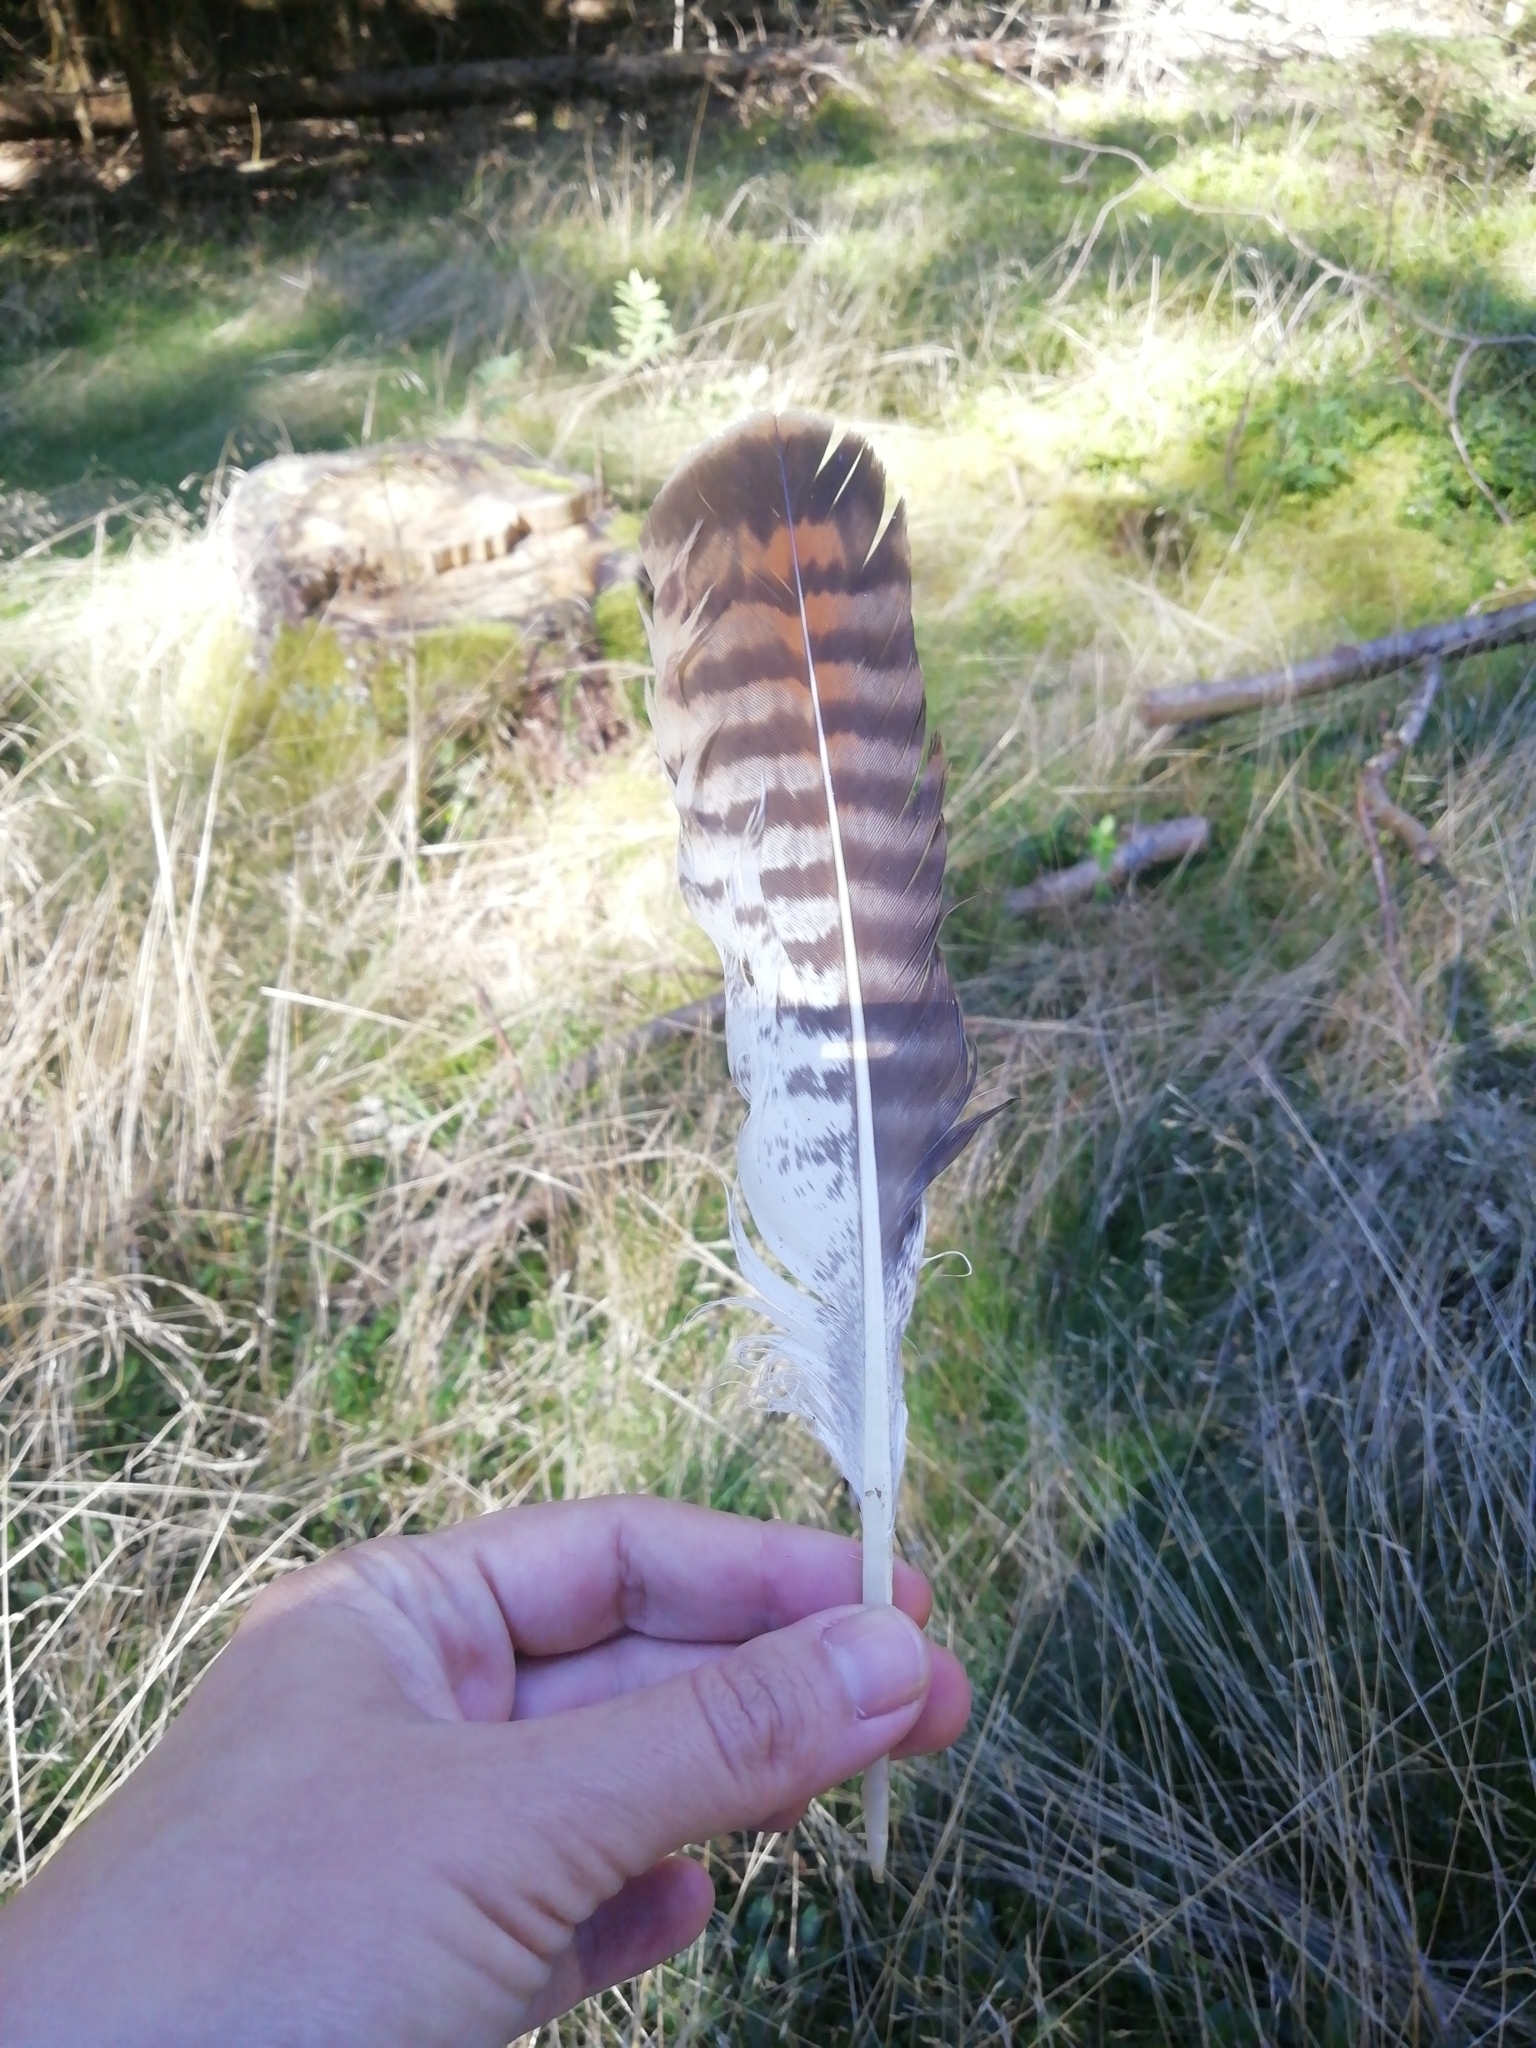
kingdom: Animalia
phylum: Chordata
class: Aves
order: Accipitriformes
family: Accipitridae
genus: Buteo
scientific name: Buteo buteo
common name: Common buzzard
